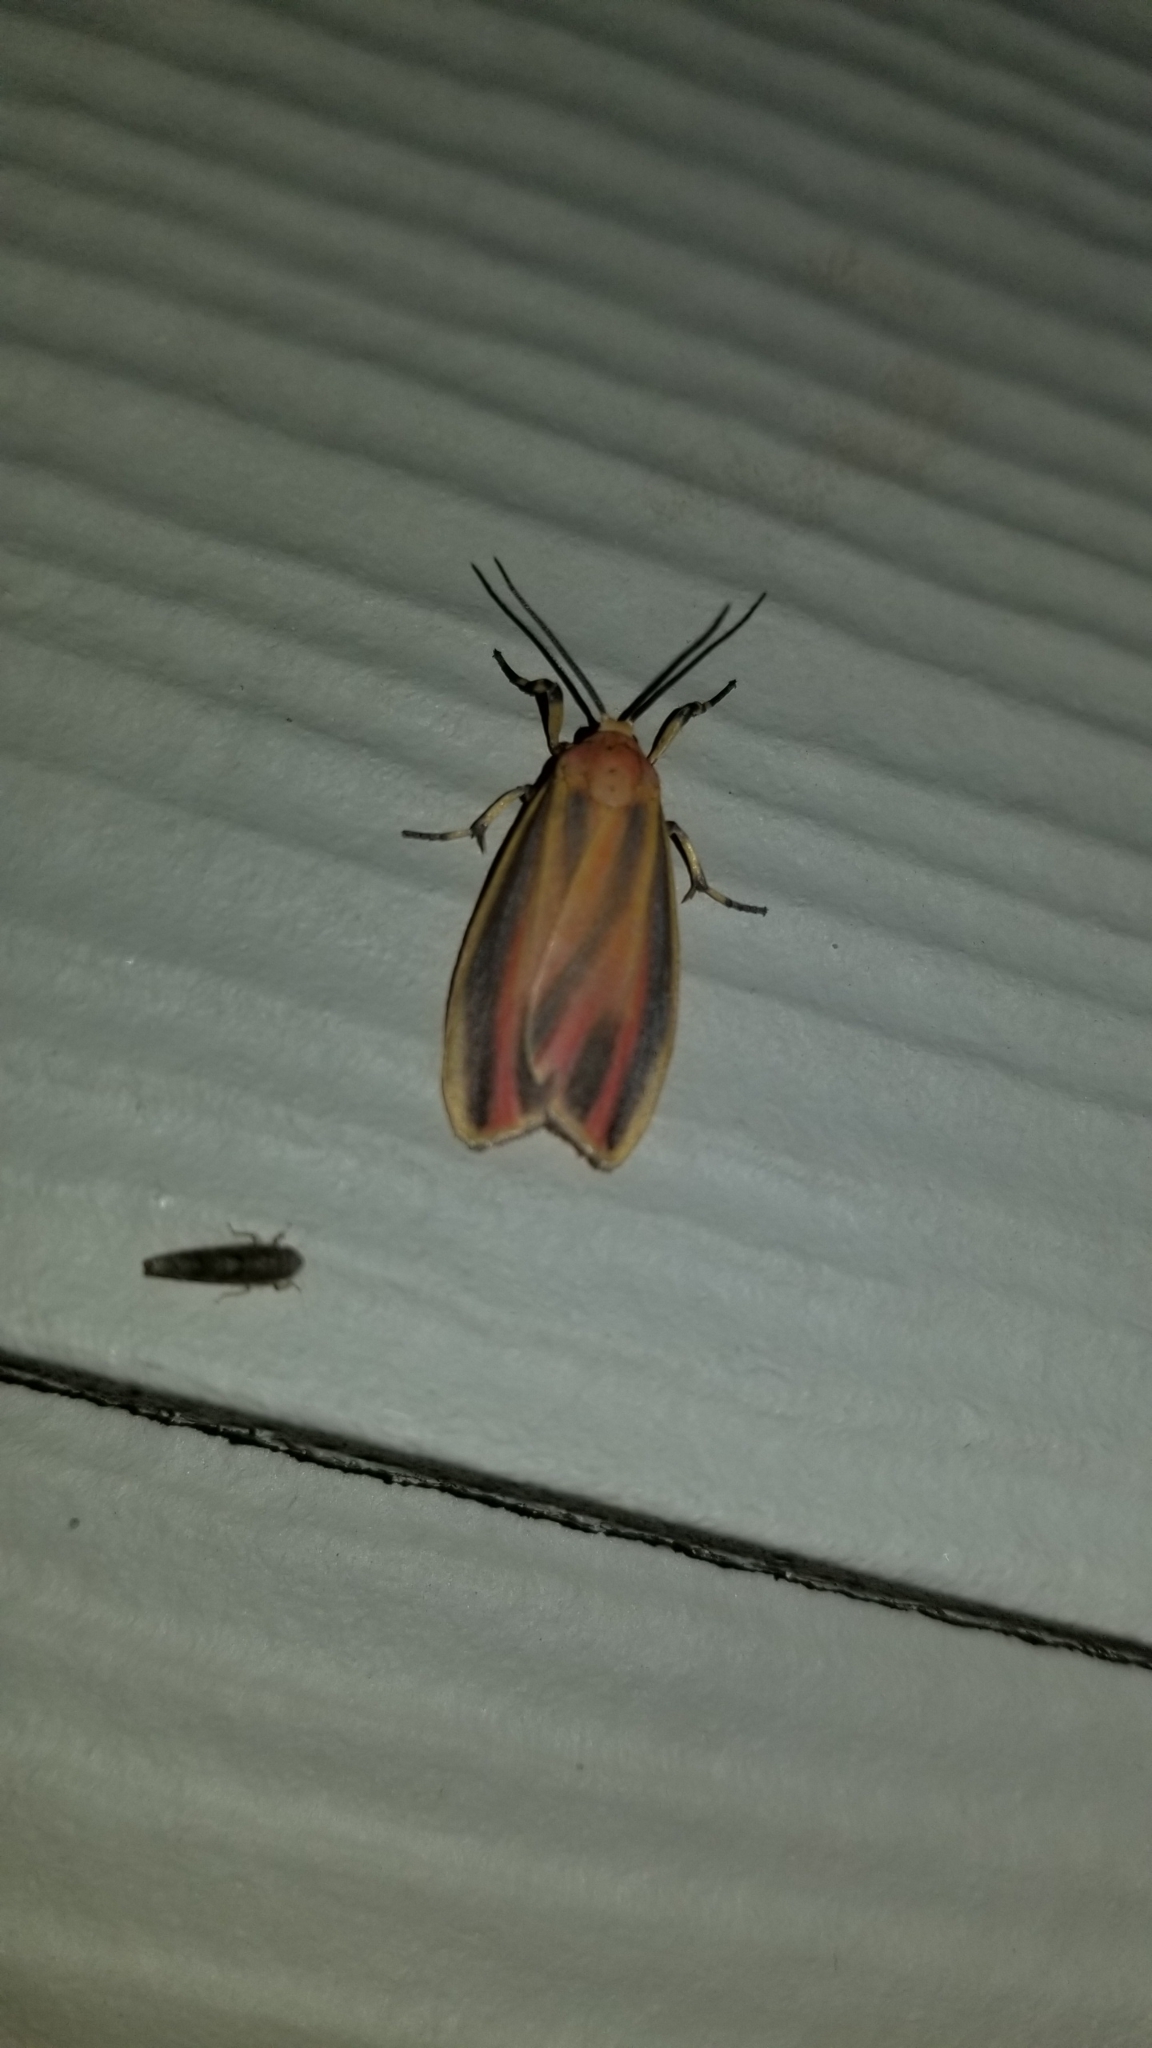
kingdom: Animalia
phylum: Arthropoda
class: Insecta
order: Lepidoptera
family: Erebidae
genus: Hypoprepia
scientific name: Hypoprepia fucosa
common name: Painted lichen moth
